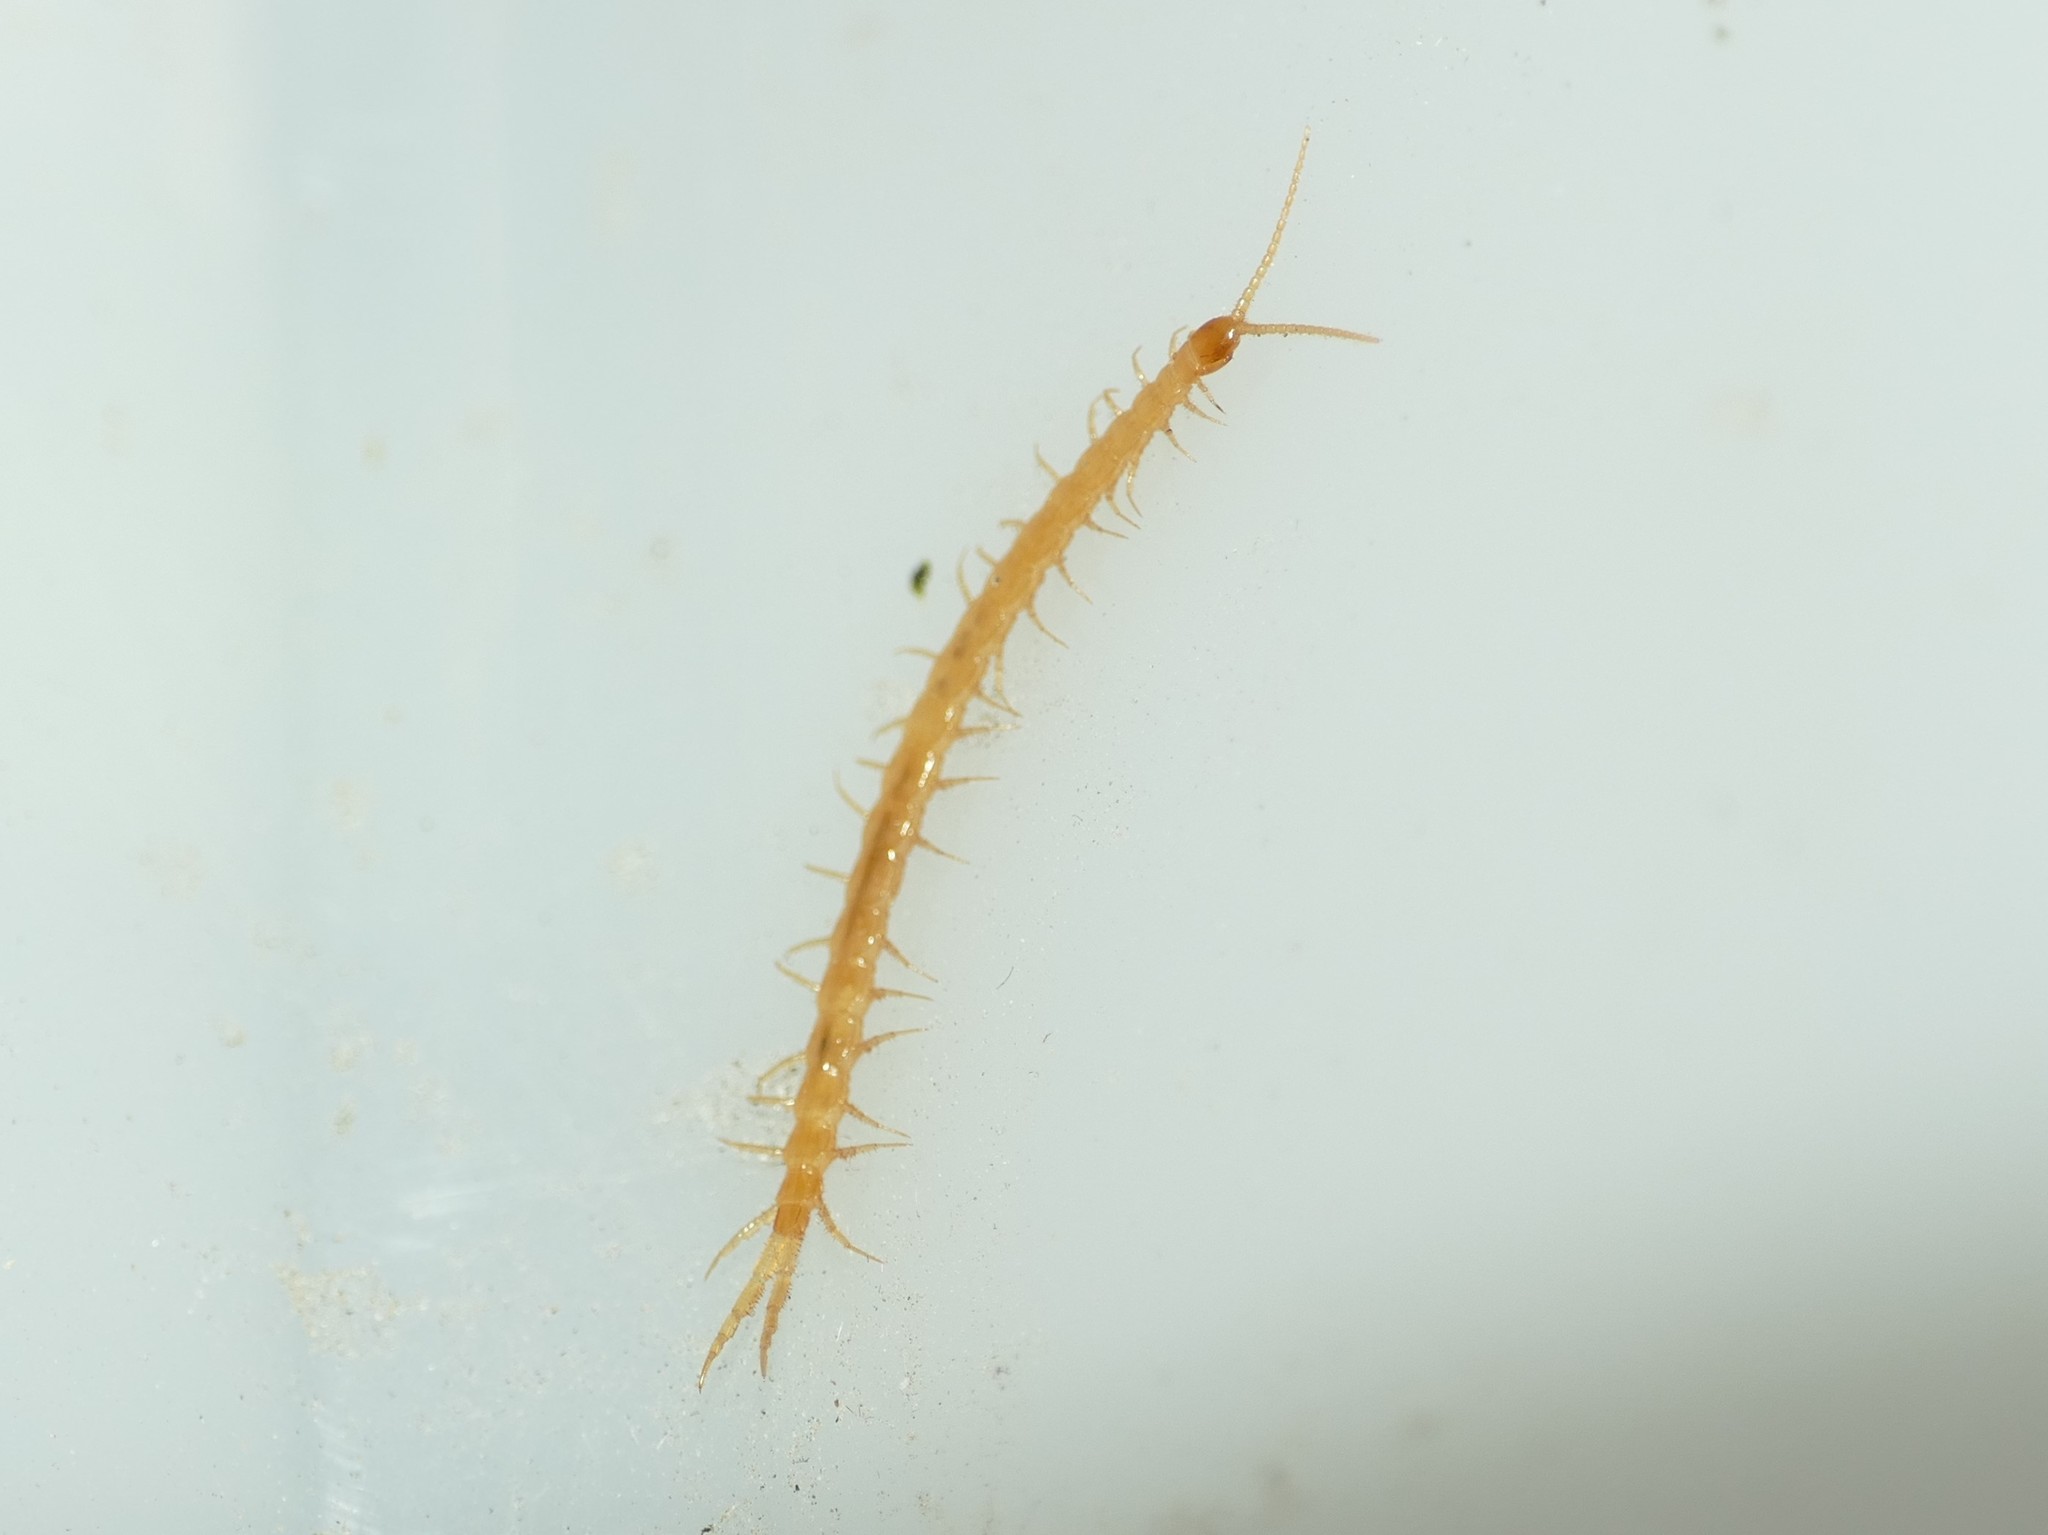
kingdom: Animalia
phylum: Arthropoda
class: Chilopoda
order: Scolopendromorpha
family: Cryptopidae
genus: Cryptops
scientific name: Cryptops hispanus
